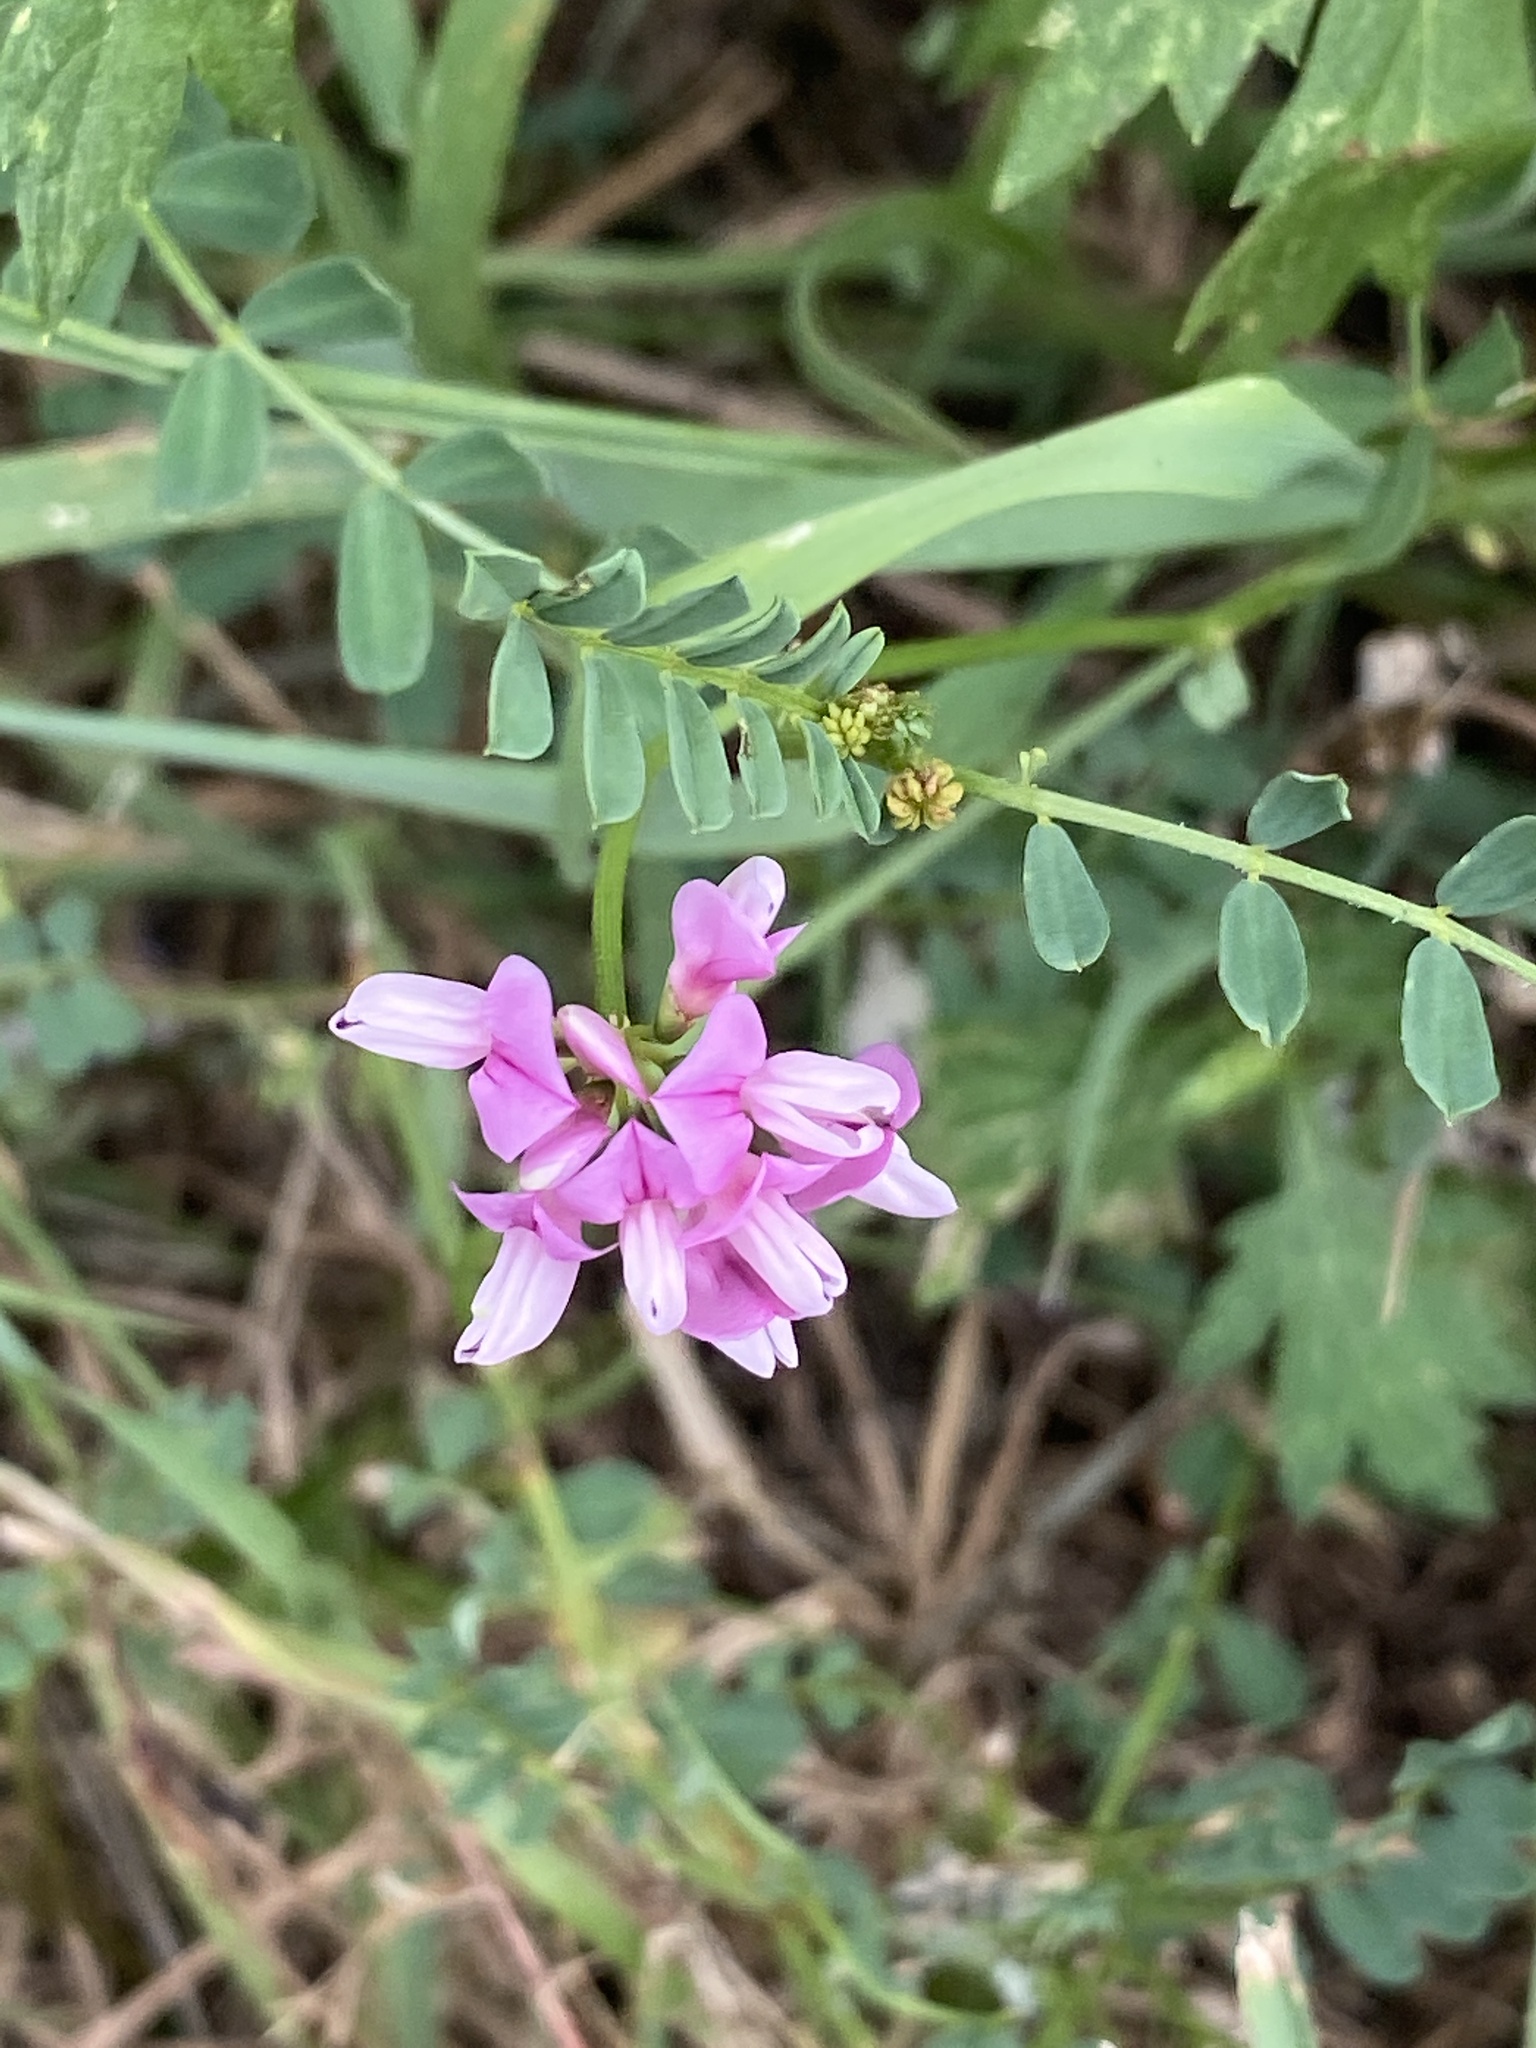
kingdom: Plantae
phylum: Tracheophyta
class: Magnoliopsida
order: Fabales
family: Fabaceae
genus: Coronilla
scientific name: Coronilla varia
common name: Crownvetch
